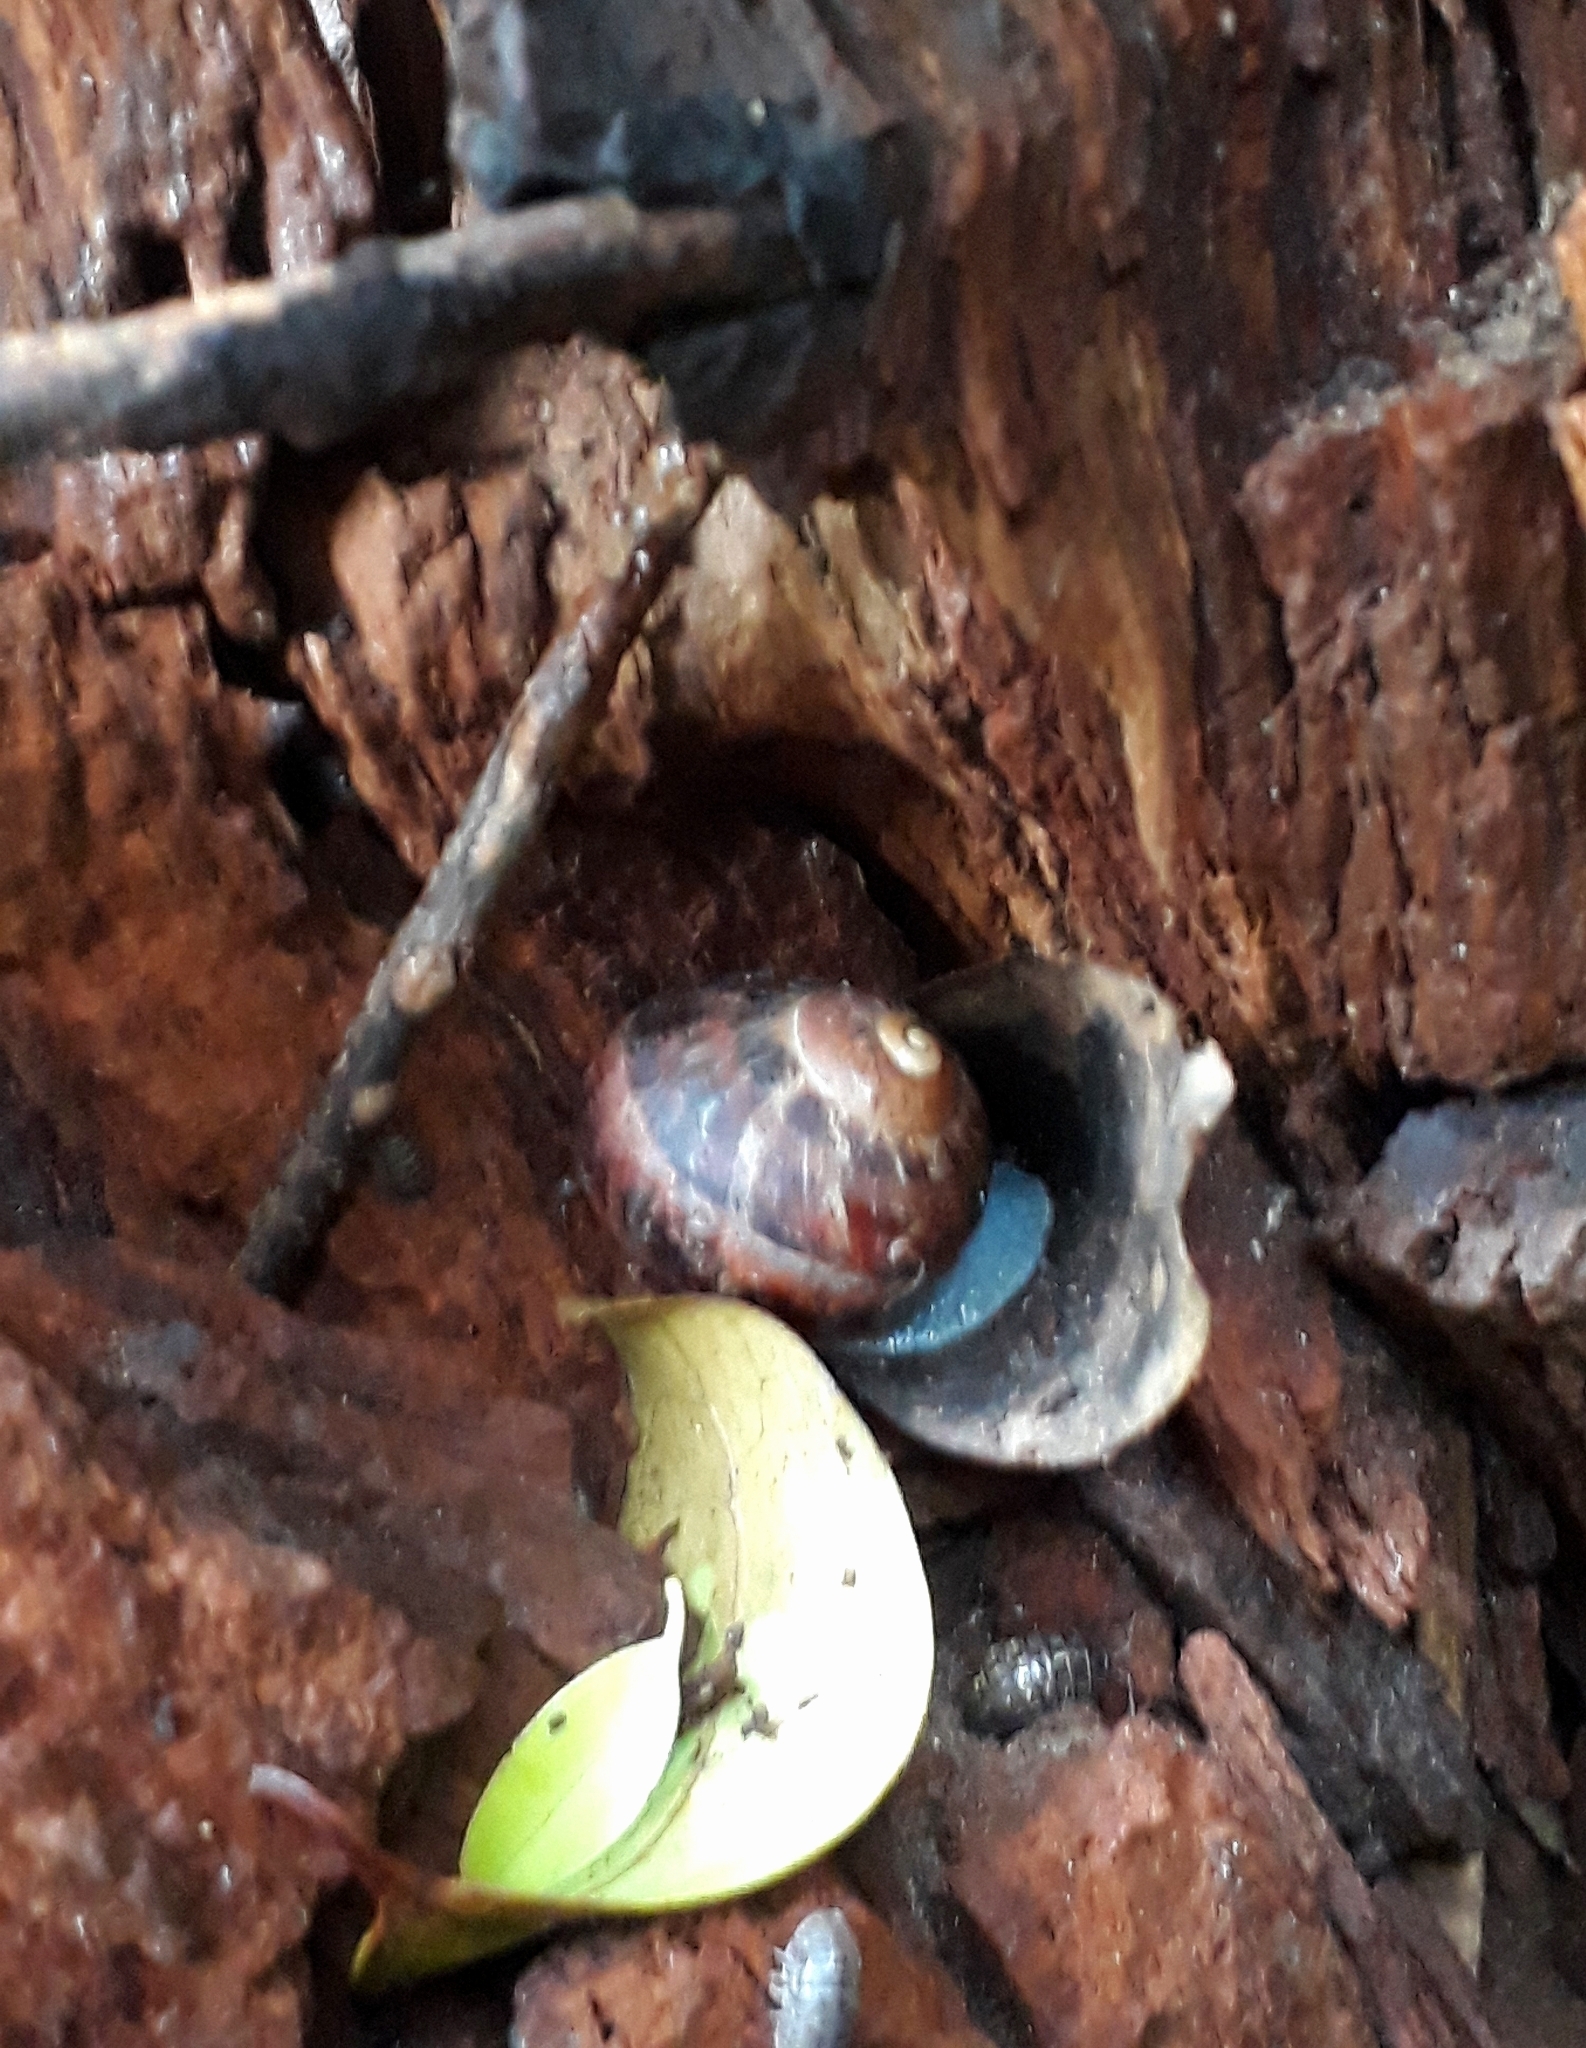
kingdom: Animalia
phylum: Mollusca
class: Gastropoda
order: Stylommatophora
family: Helicidae
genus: Cornu
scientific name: Cornu aspersum
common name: Brown garden snail
